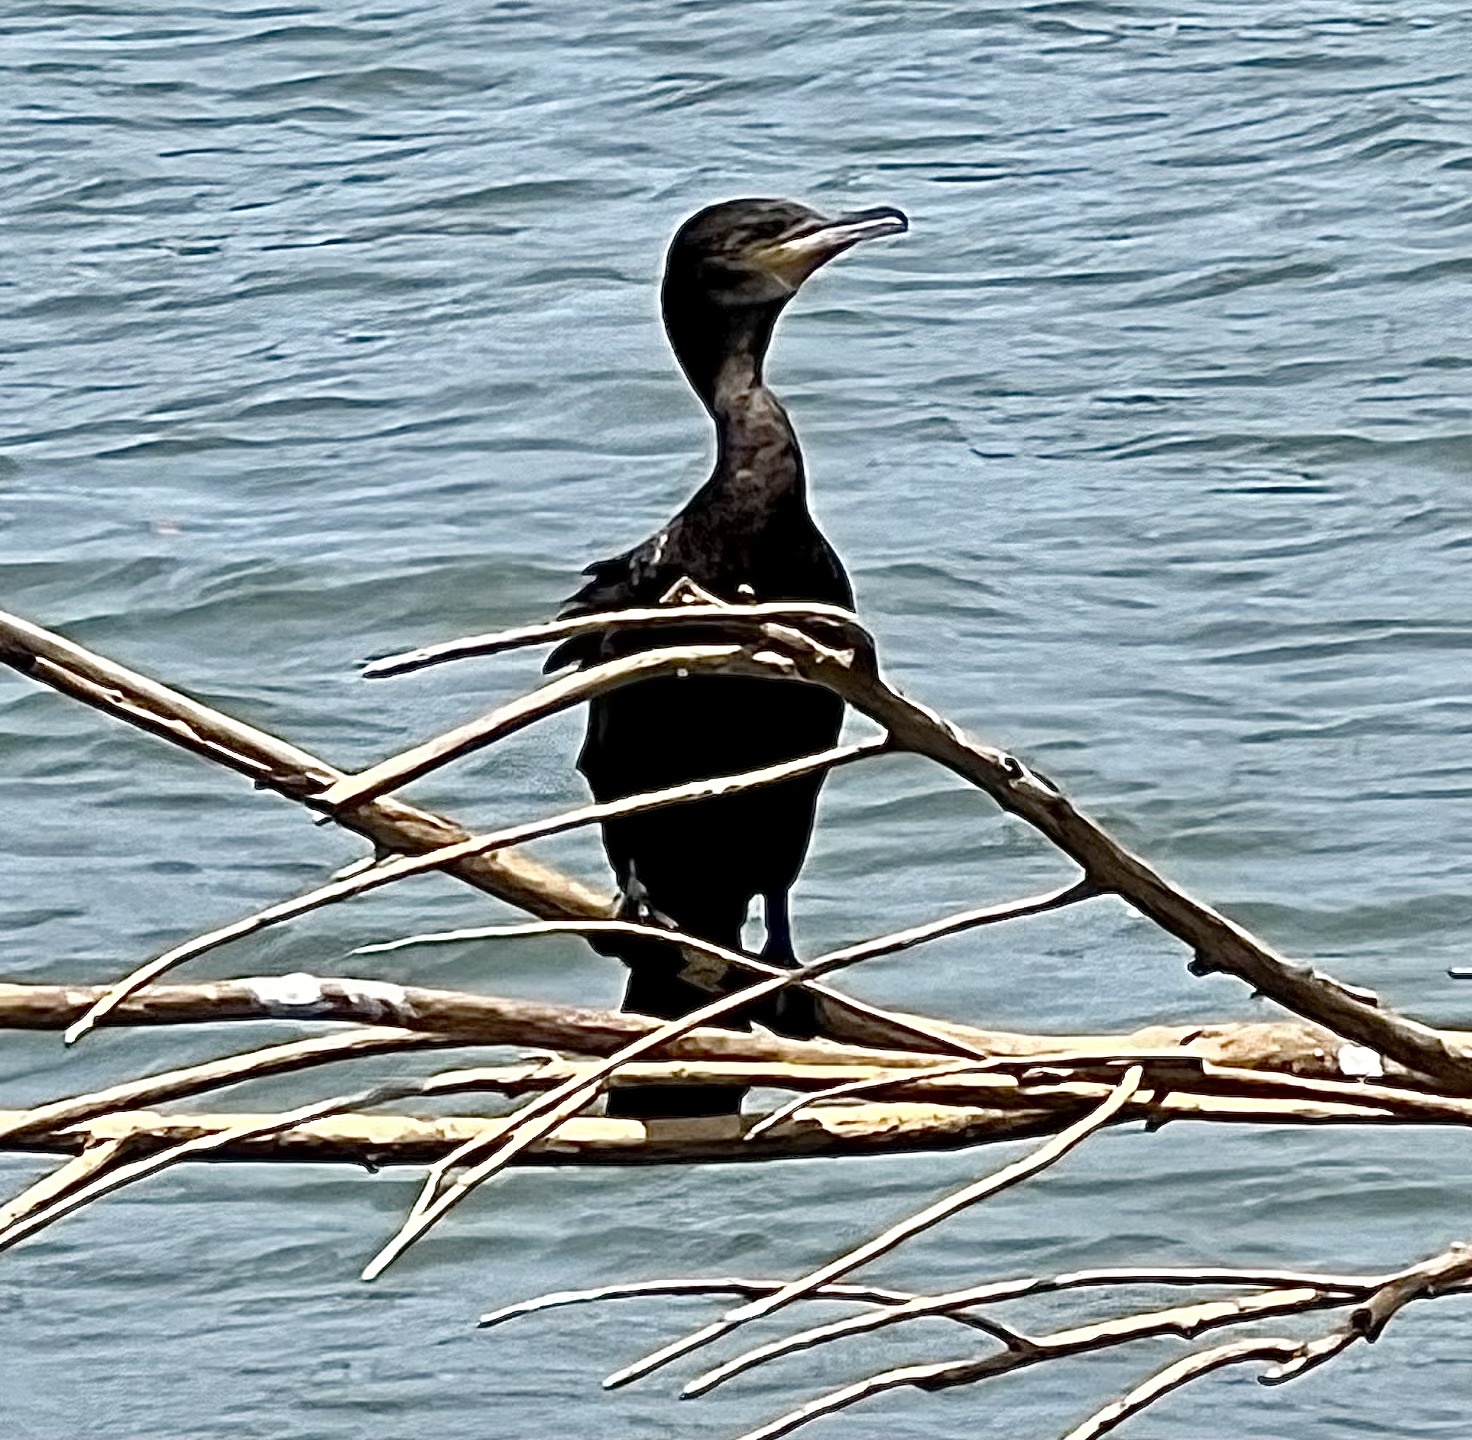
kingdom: Animalia
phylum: Chordata
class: Aves
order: Suliformes
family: Phalacrocoracidae
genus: Phalacrocorax
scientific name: Phalacrocorax brasilianus
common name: Neotropic cormorant
